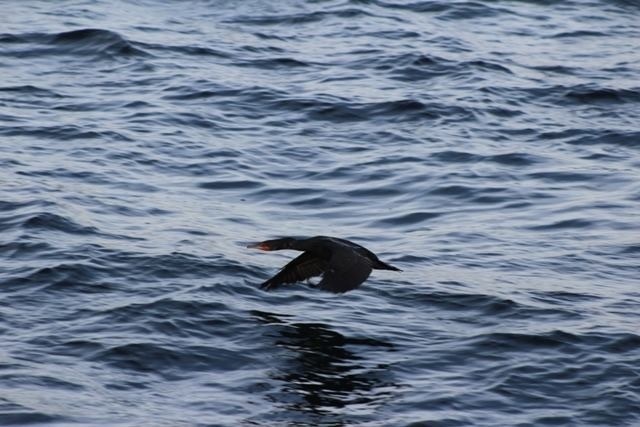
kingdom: Animalia
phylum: Chordata
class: Aves
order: Suliformes
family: Phalacrocoracidae
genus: Phalacrocorax
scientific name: Phalacrocorax auritus
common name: Double-crested cormorant
